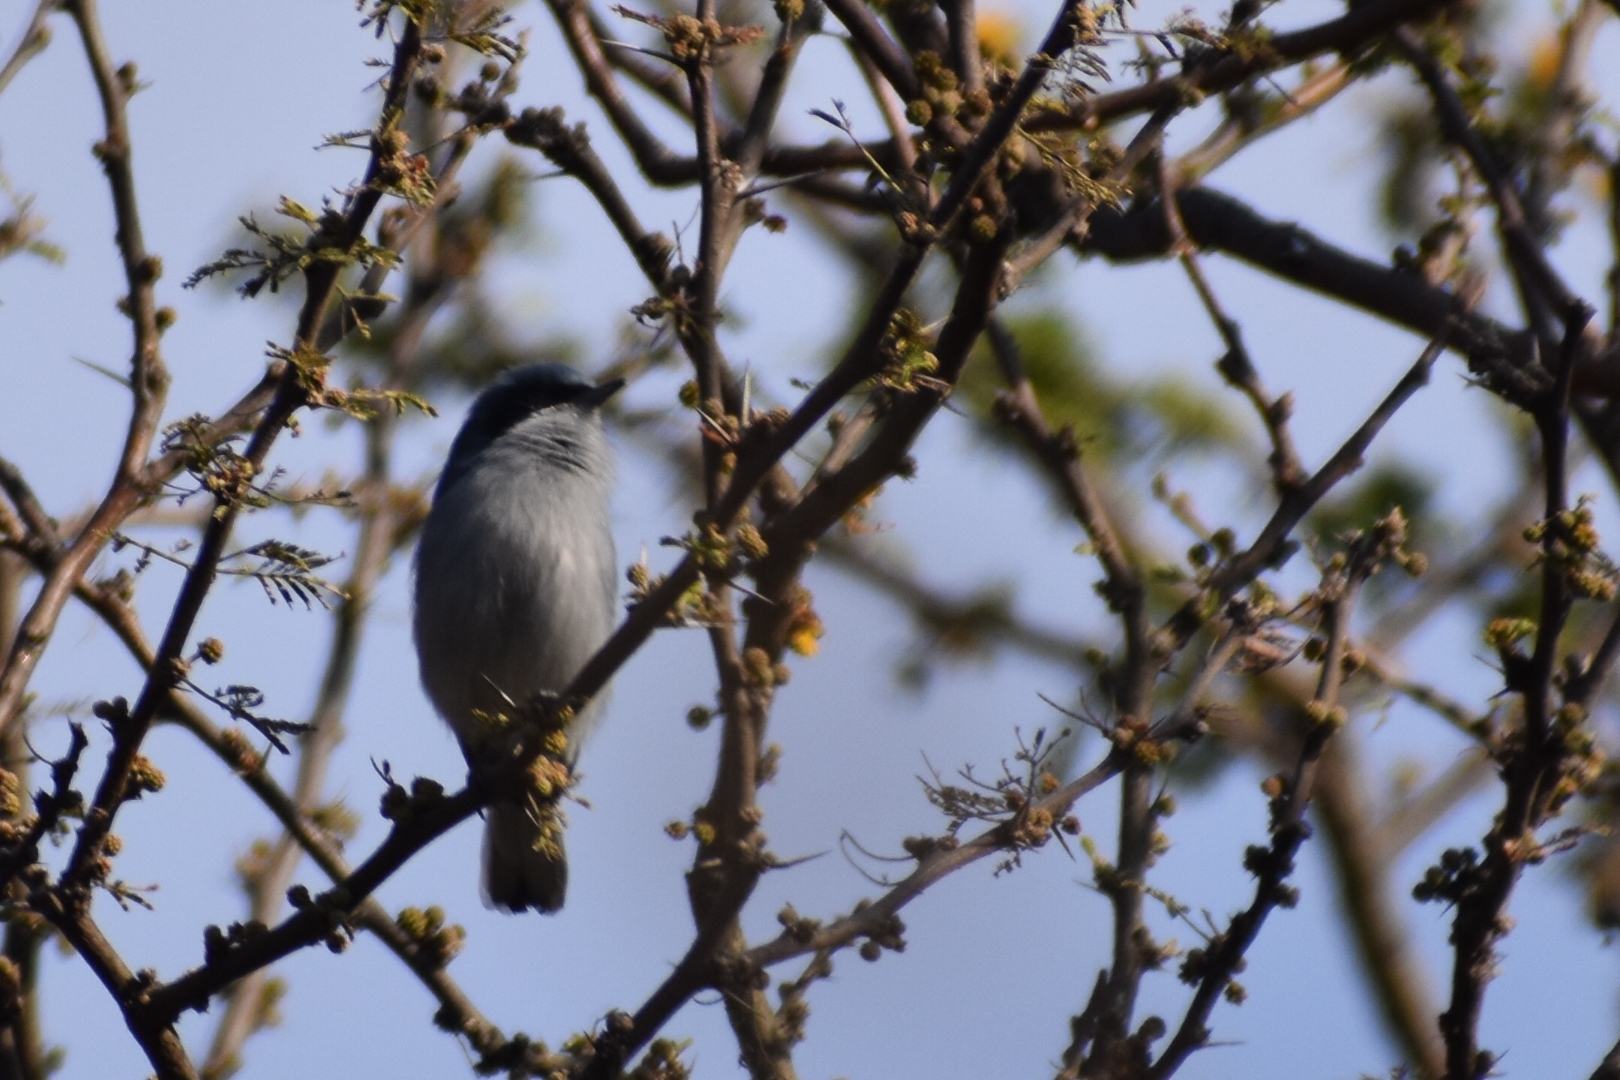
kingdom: Animalia
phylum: Chordata
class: Aves
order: Passeriformes
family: Polioptilidae
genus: Polioptila
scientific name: Polioptila dumicola
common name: Masked gnatcatcher
